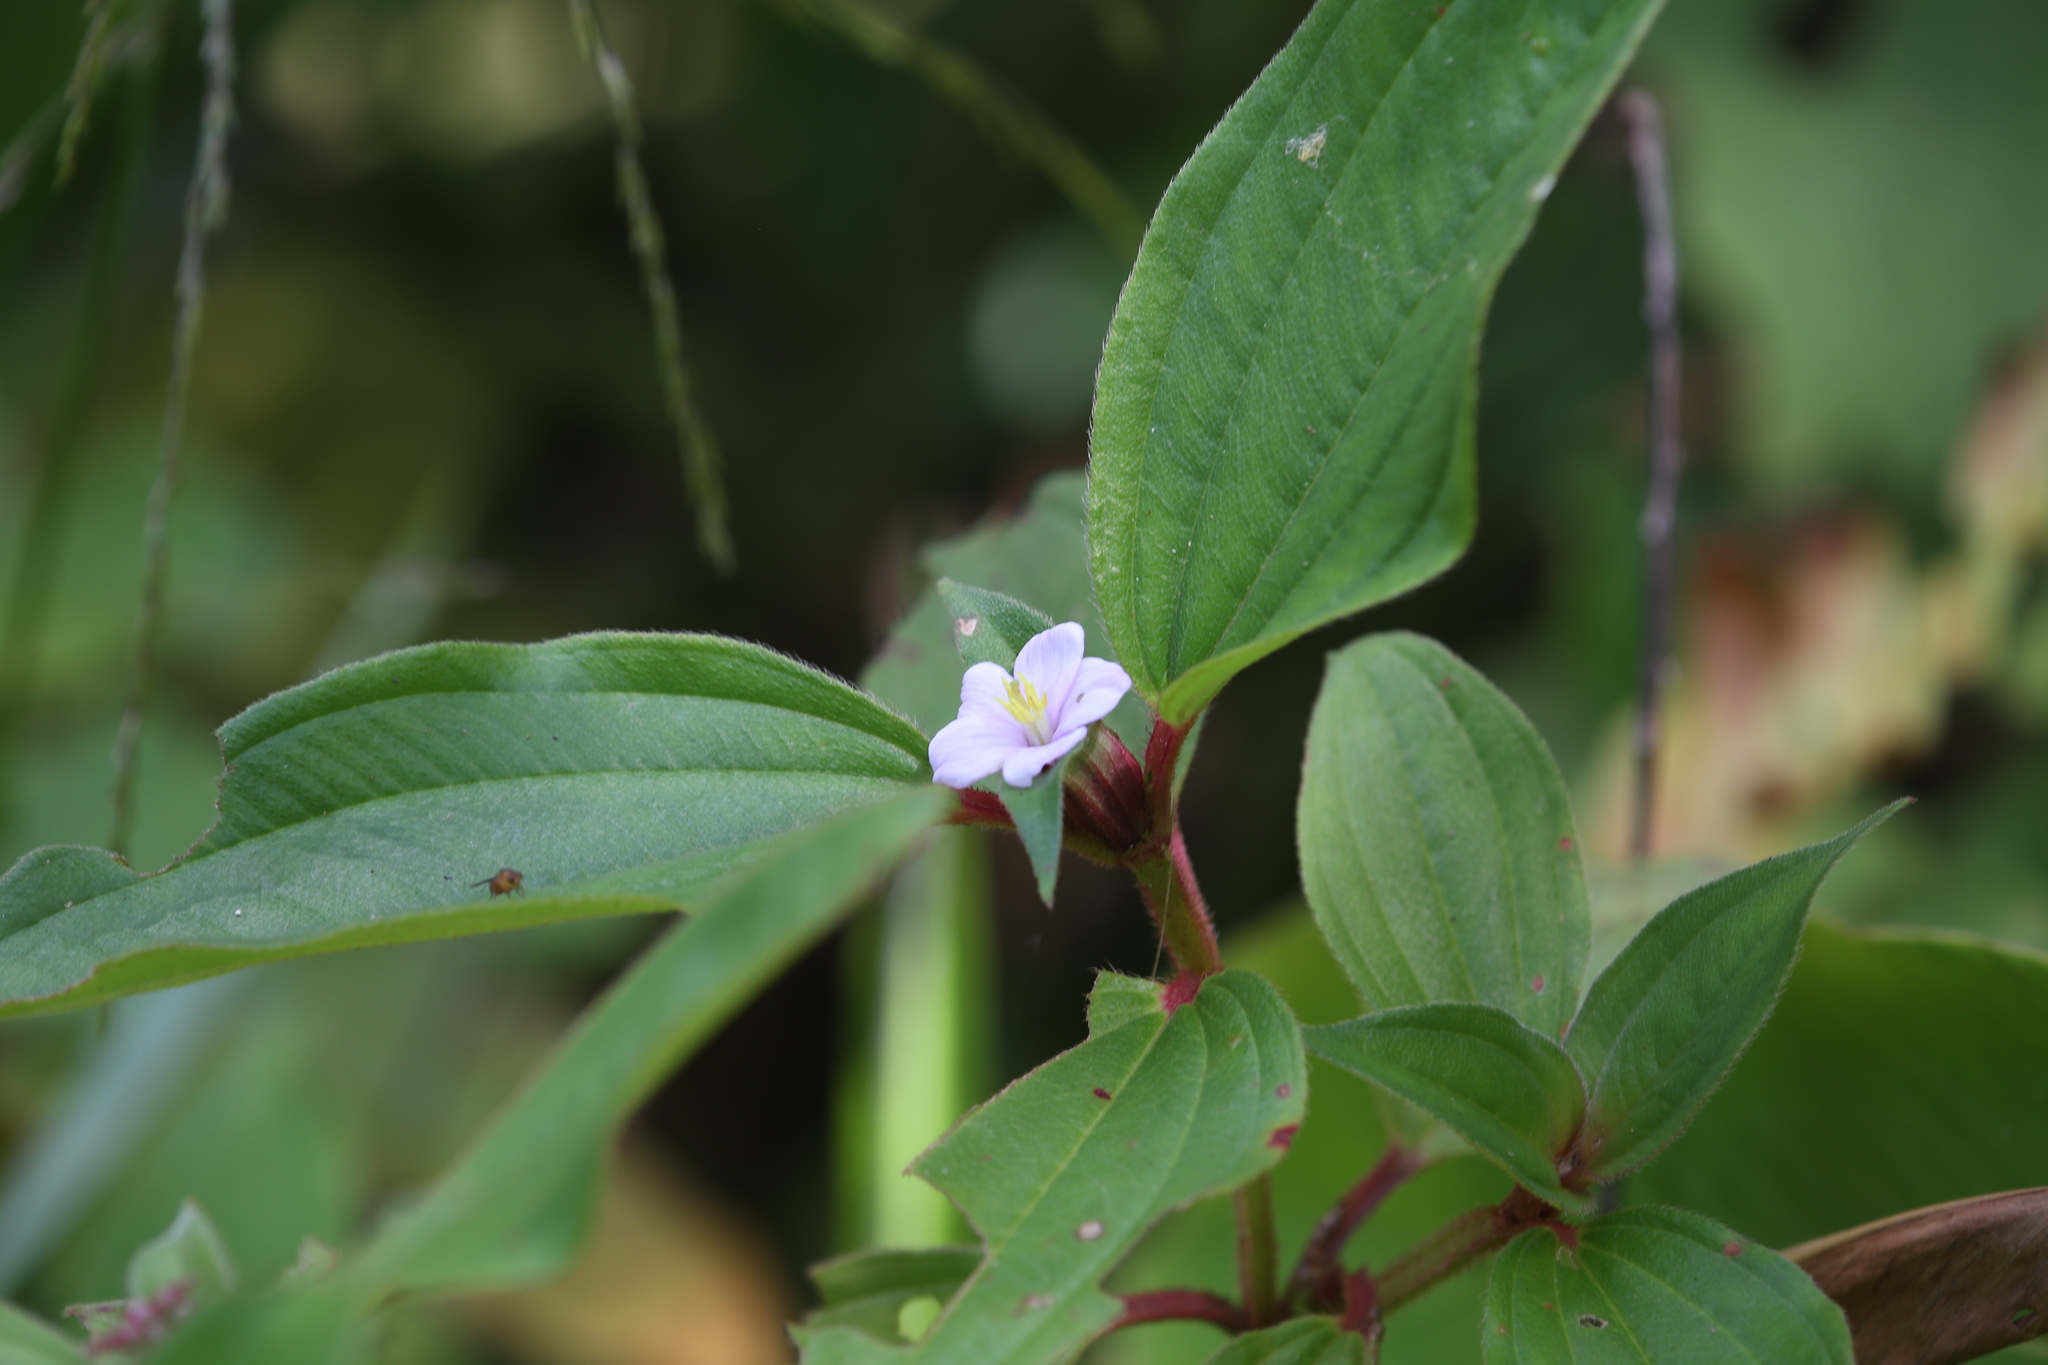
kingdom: Plantae
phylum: Tracheophyta
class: Magnoliopsida
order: Myrtales
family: Melastomataceae
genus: Tristemma
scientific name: Tristemma mauritianum
